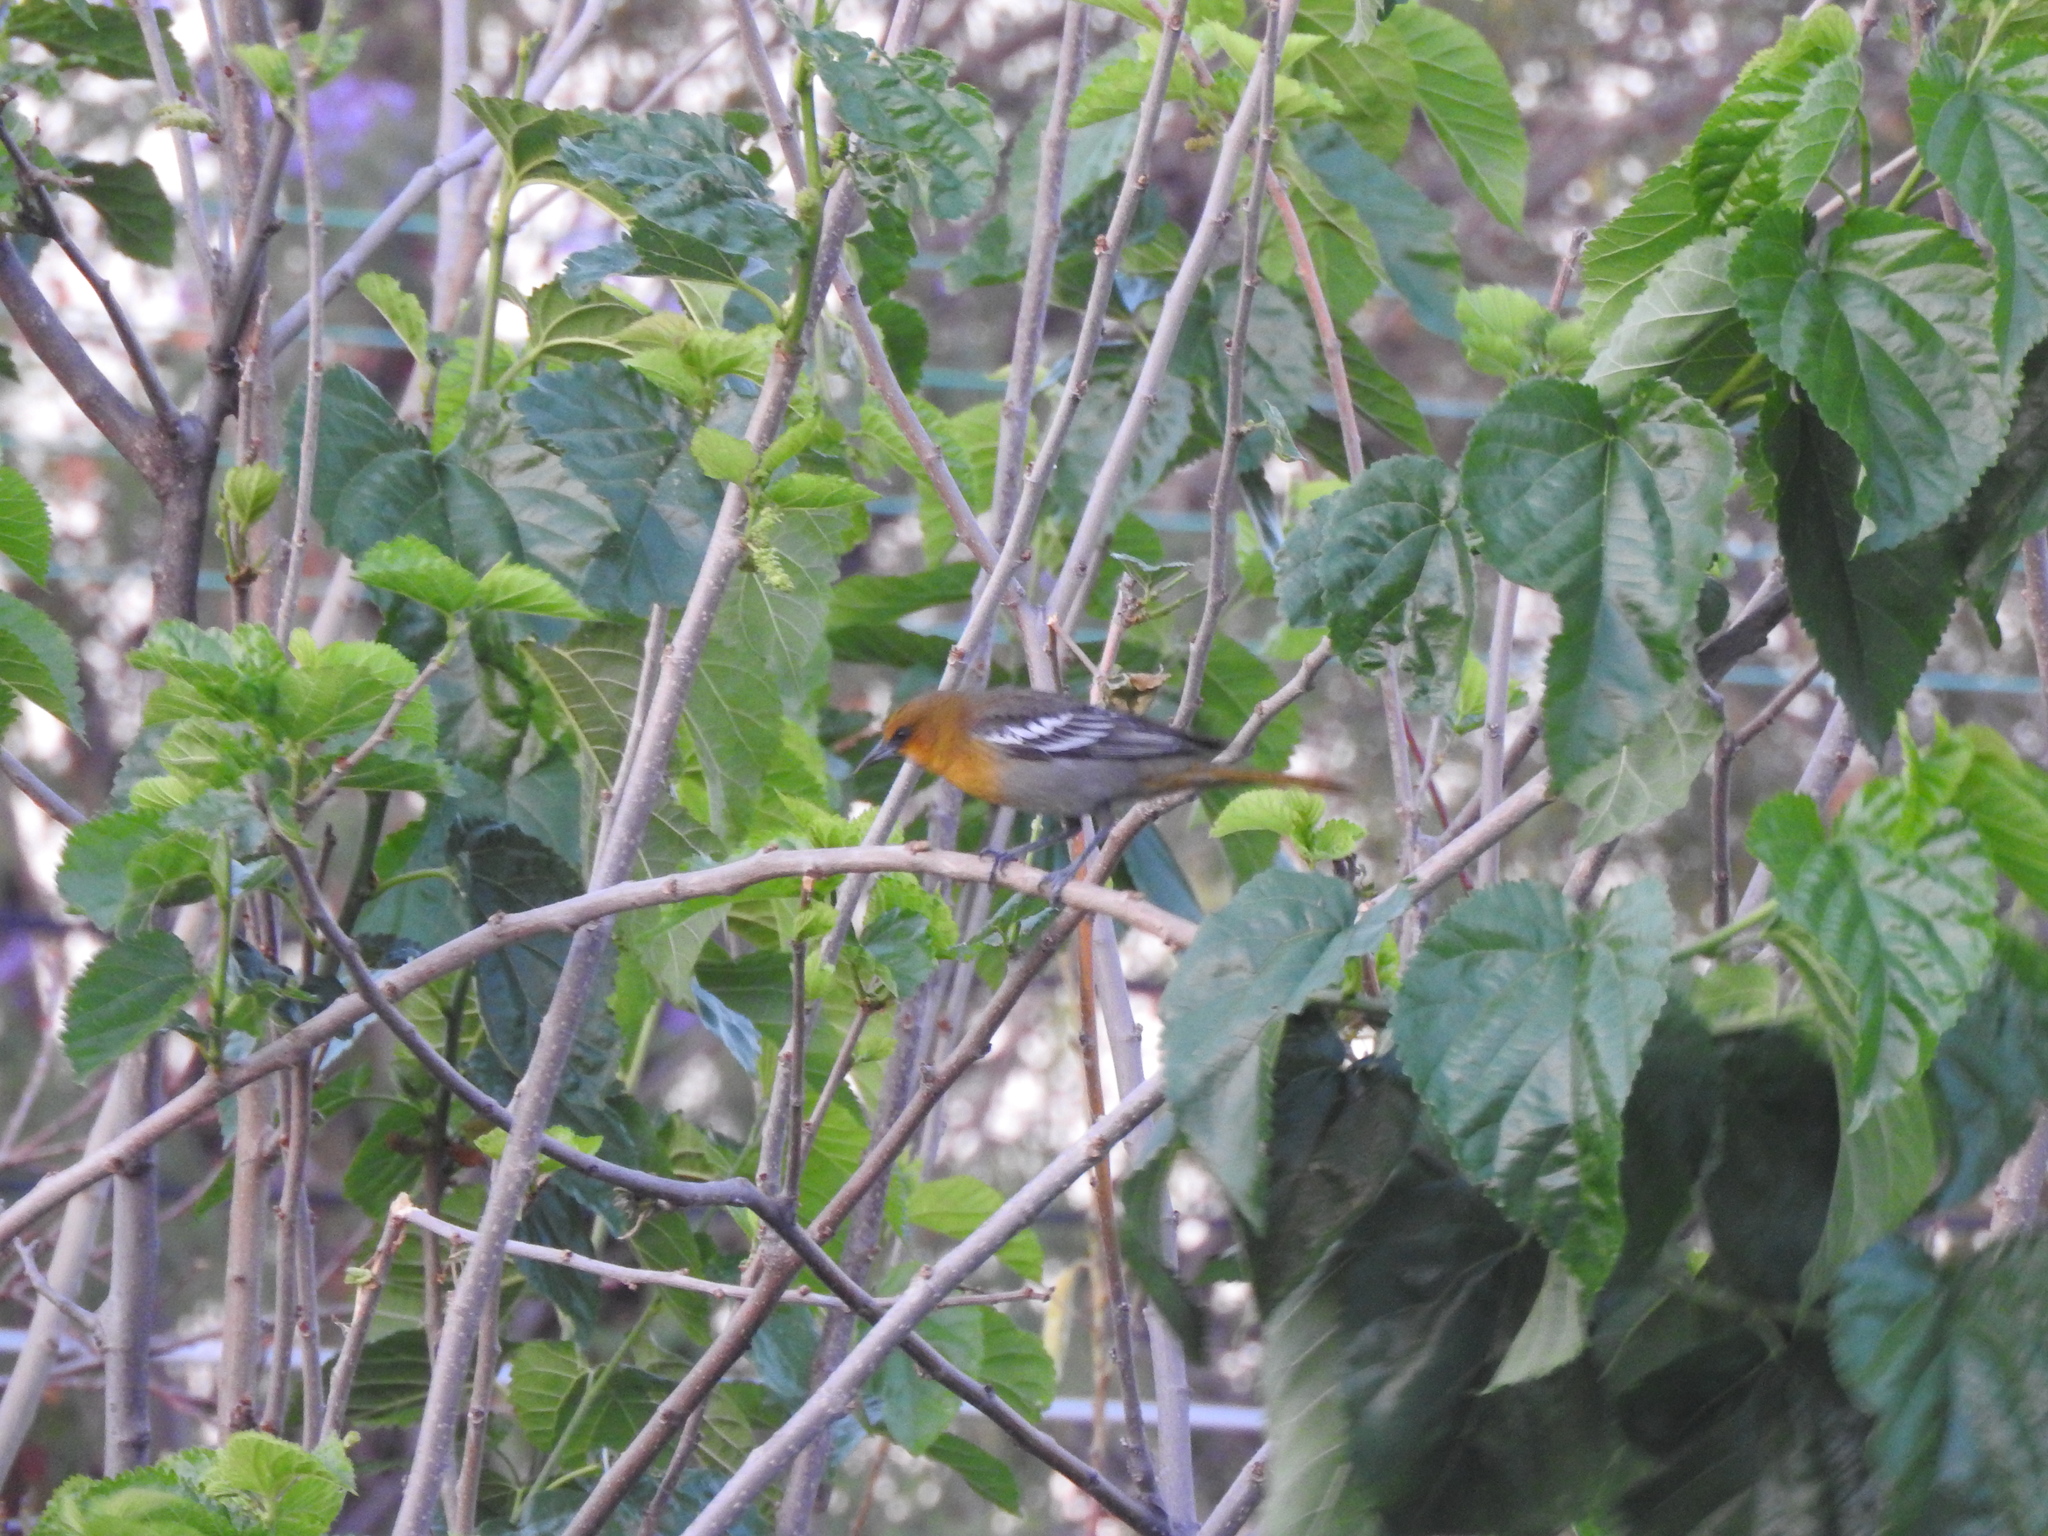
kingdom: Animalia
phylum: Chordata
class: Aves
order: Passeriformes
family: Icteridae
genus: Icterus
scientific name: Icterus bullockii
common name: Bullock's oriole
